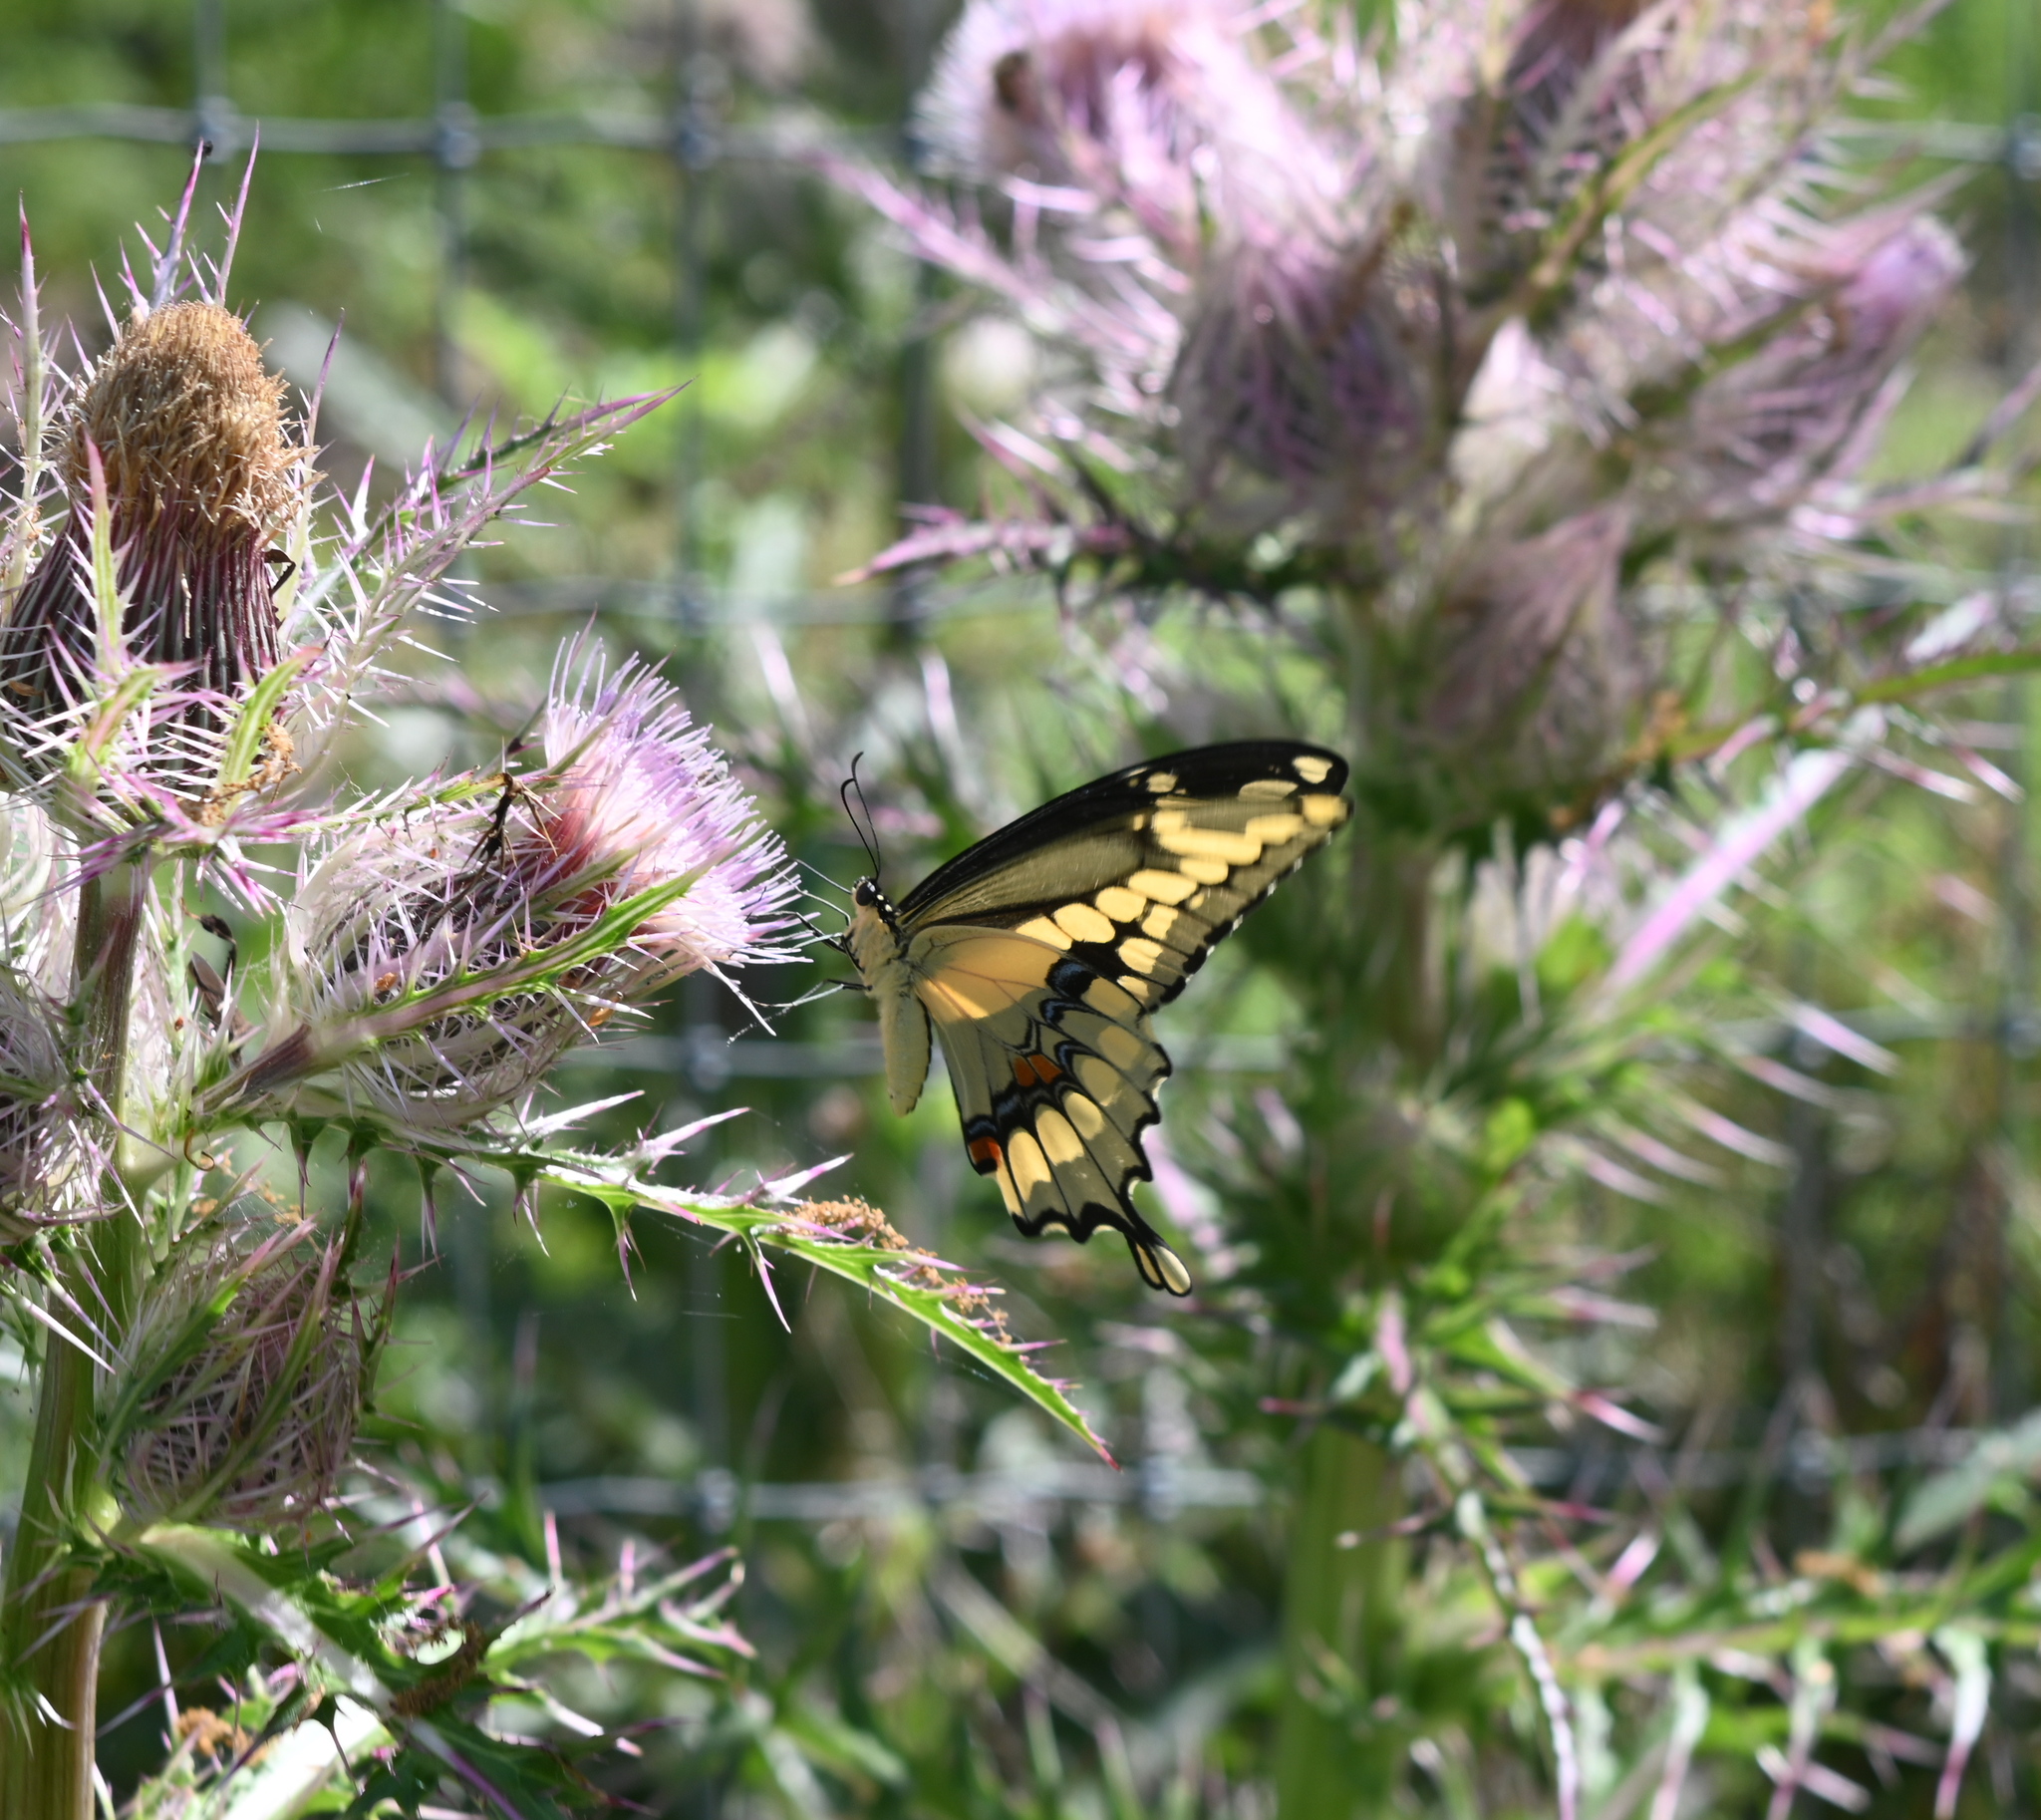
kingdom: Animalia
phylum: Arthropoda
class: Insecta
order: Lepidoptera
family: Papilionidae
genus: Papilio
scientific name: Papilio cresphontes
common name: Giant swallowtail
